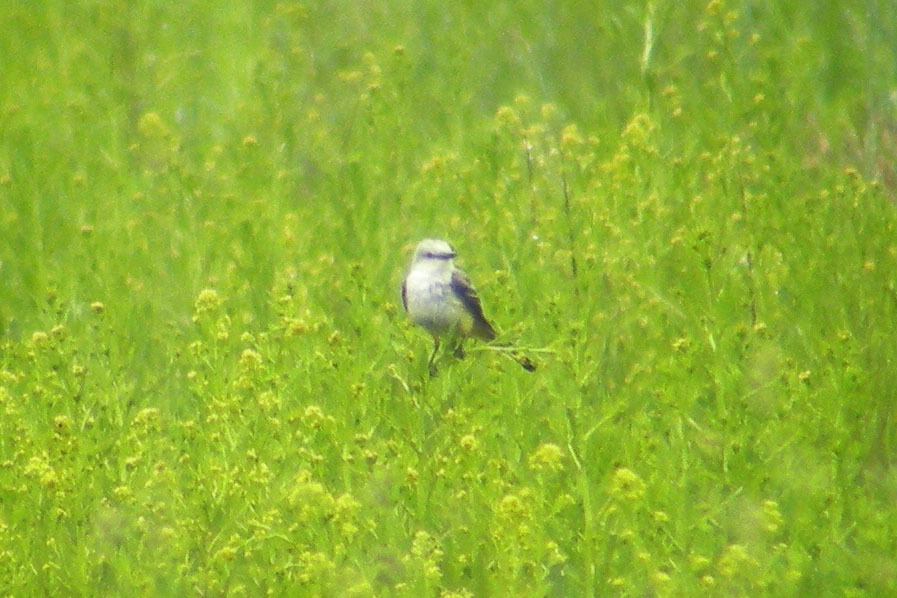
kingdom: Animalia
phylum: Chordata
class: Aves
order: Passeriformes
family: Tyrannidae
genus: Tyrannus
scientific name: Tyrannus forficatus
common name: Scissor-tailed flycatcher
